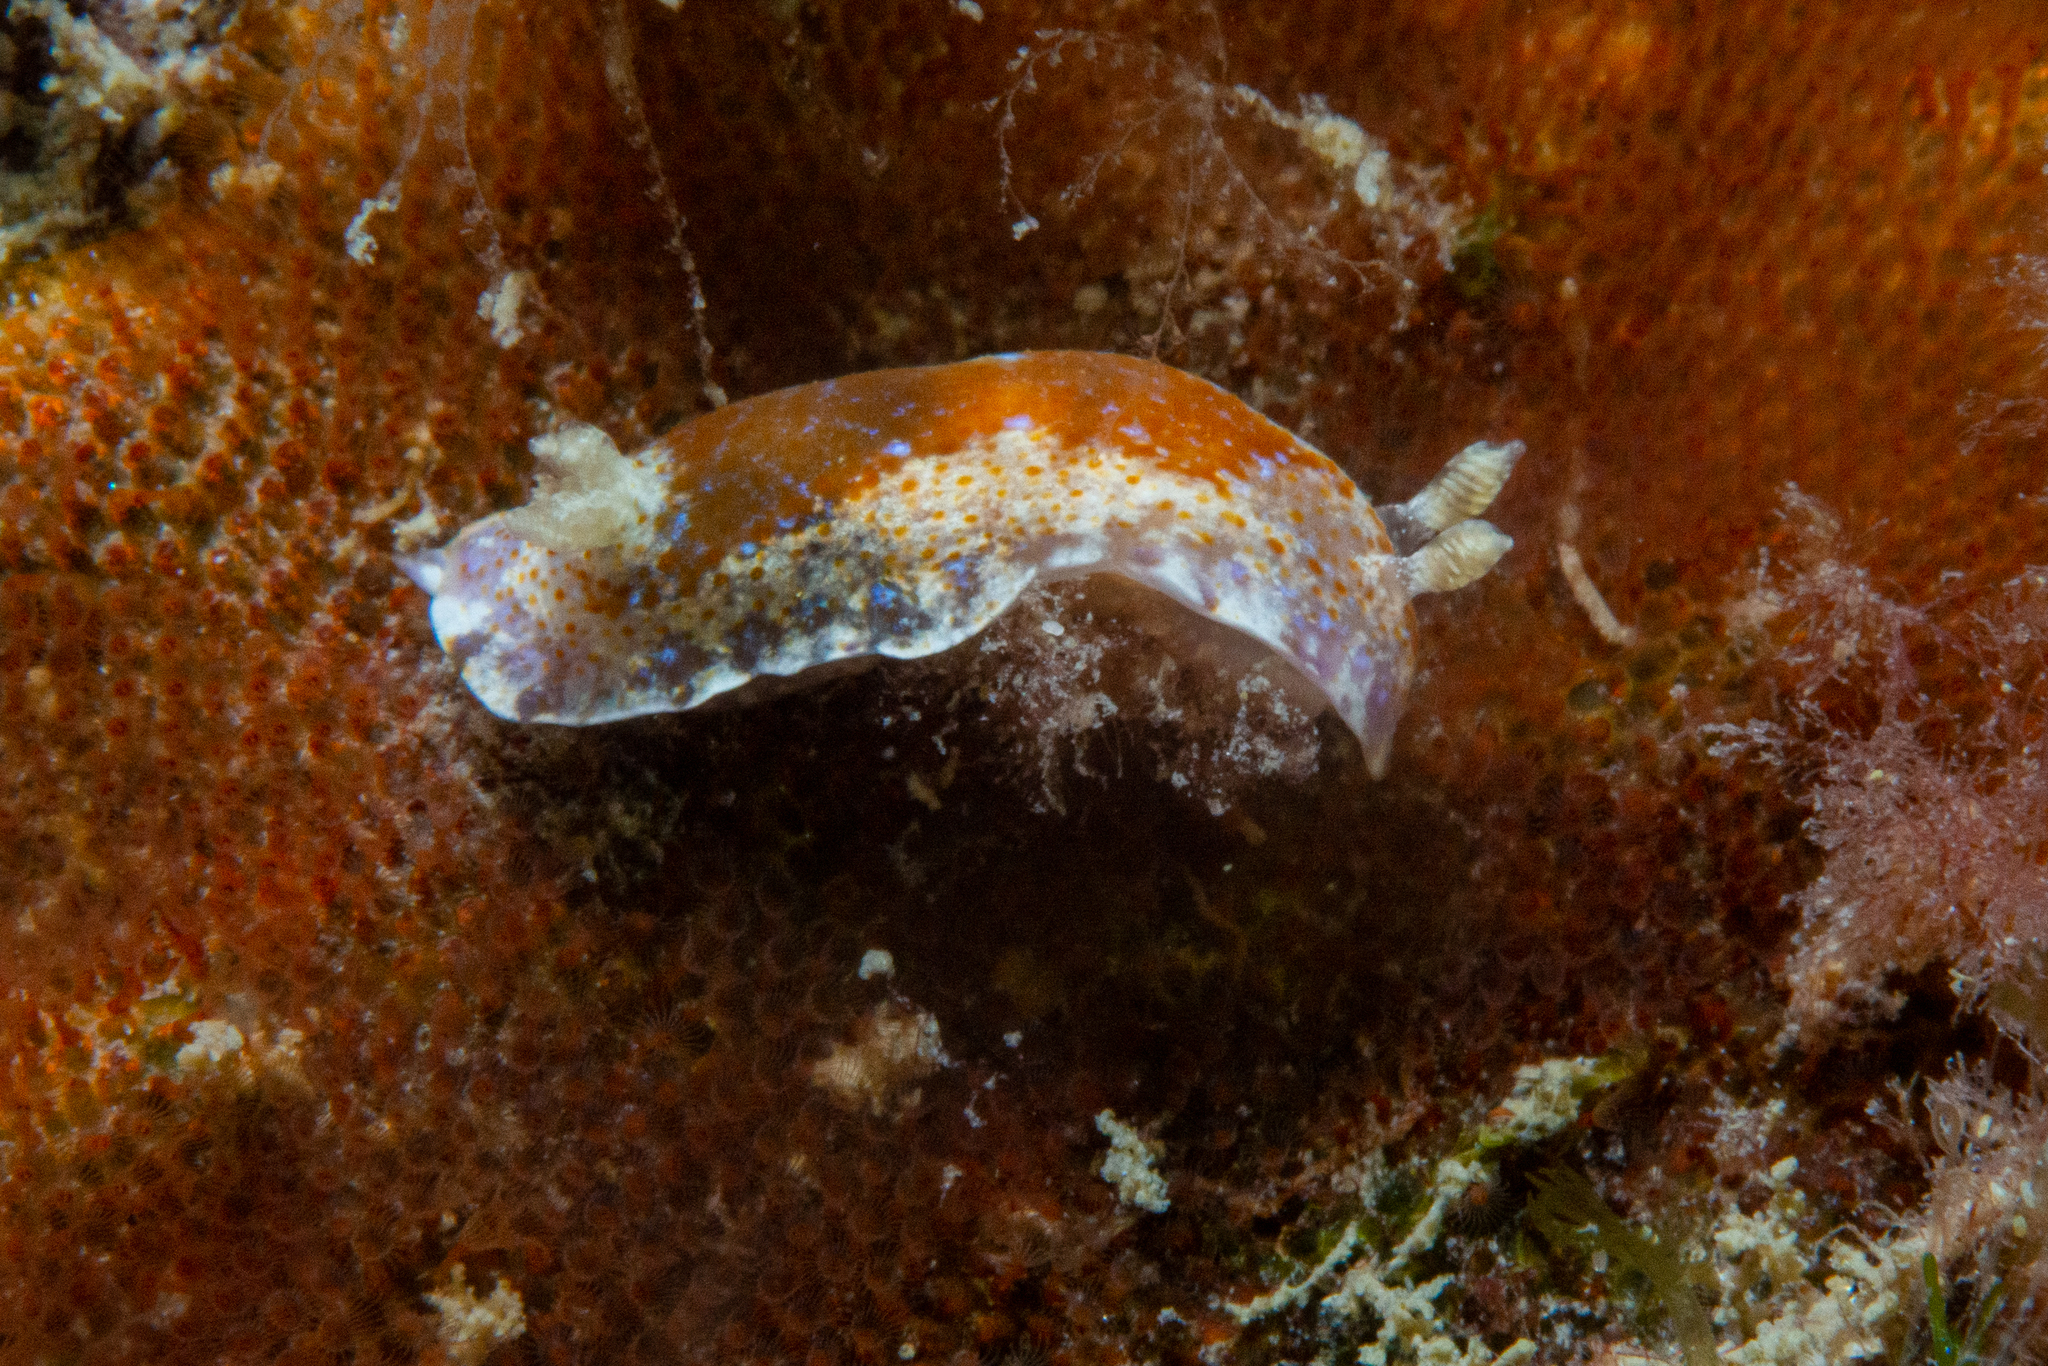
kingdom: Animalia
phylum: Mollusca
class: Gastropoda
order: Nudibranchia
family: Chromodorididae
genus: Chromodoris
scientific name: Chromodoris alternata
